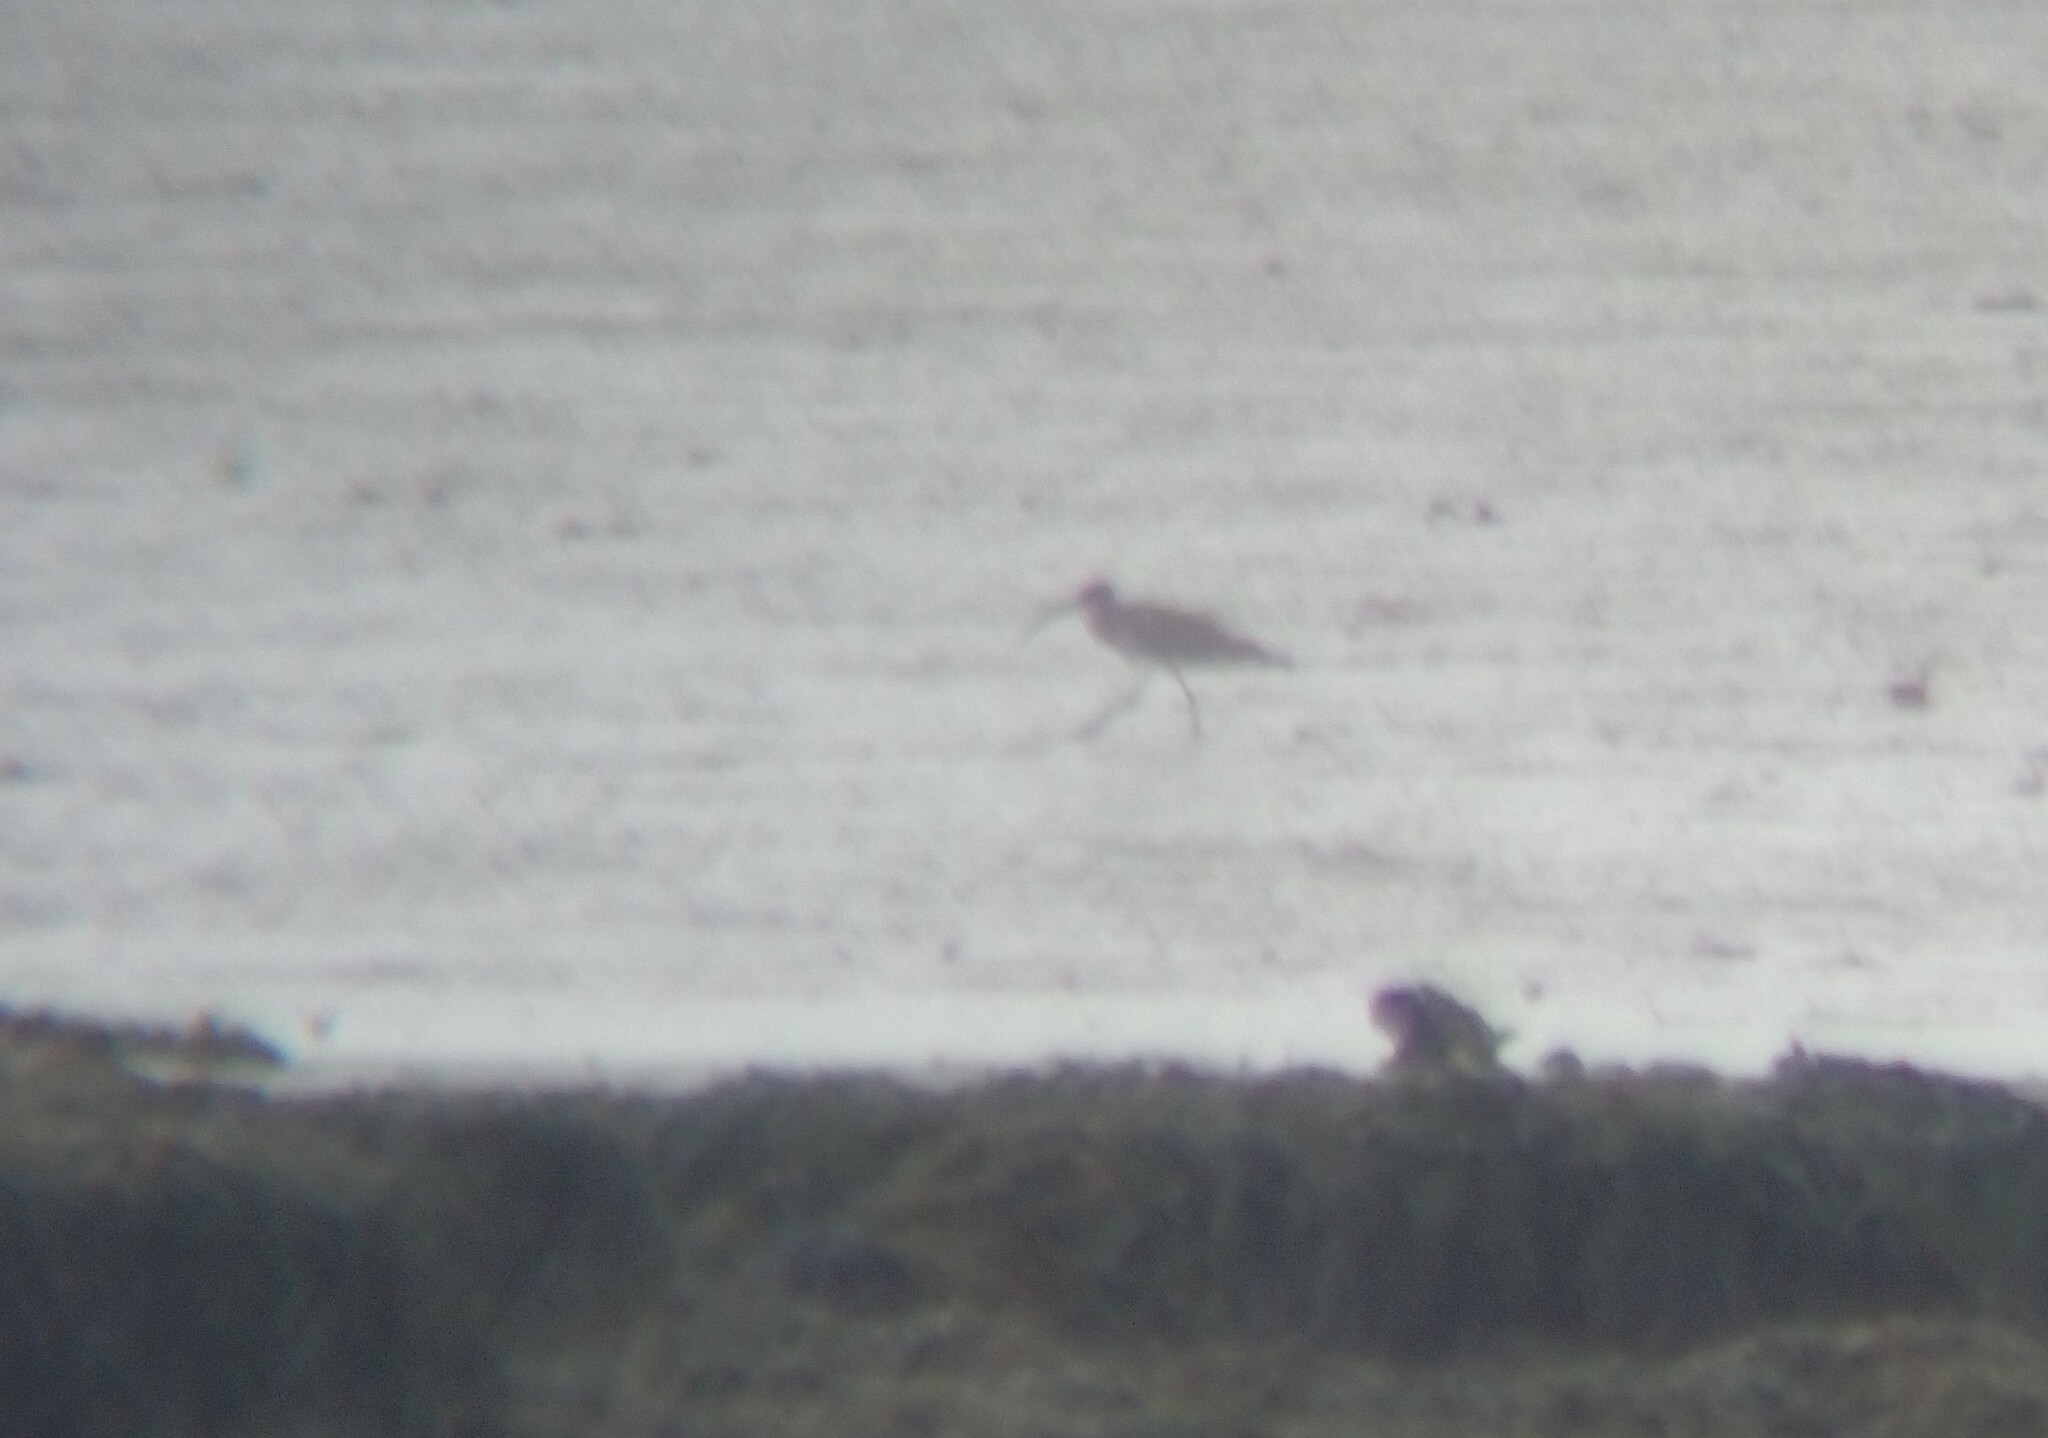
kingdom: Animalia
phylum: Chordata
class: Aves
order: Charadriiformes
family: Scolopacidae
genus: Numenius
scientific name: Numenius arquata
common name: Eurasian curlew
